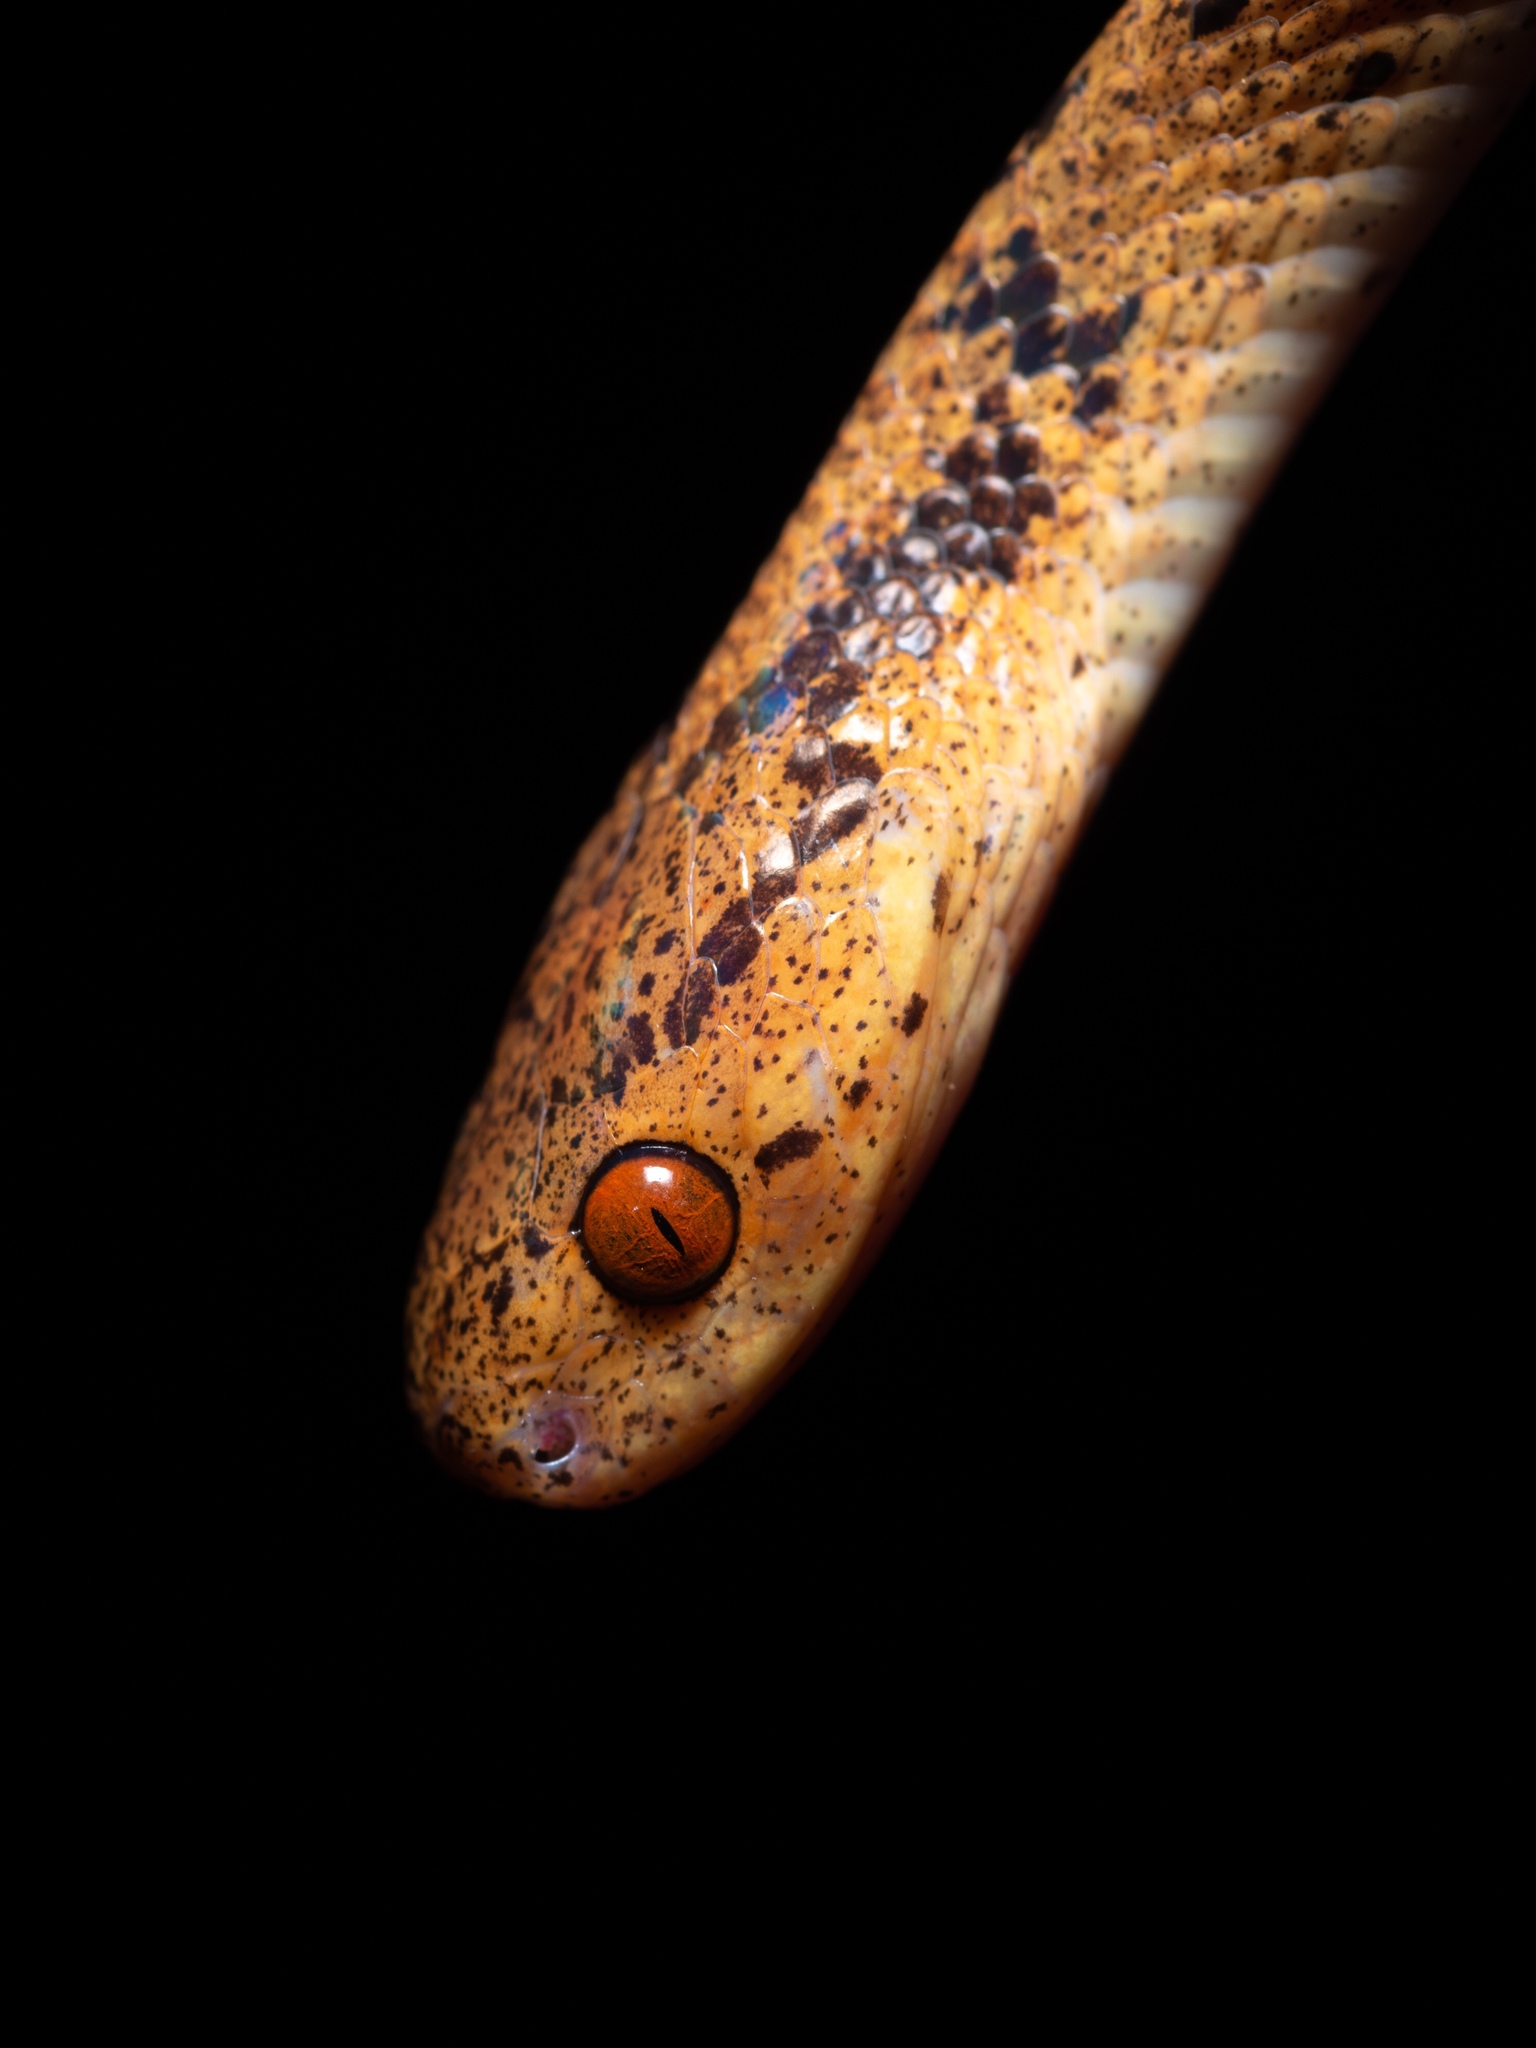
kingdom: Animalia
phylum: Chordata
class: Squamata
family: Pareidae
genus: Pareas
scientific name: Pareas chinensis
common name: Chinese slug snake
